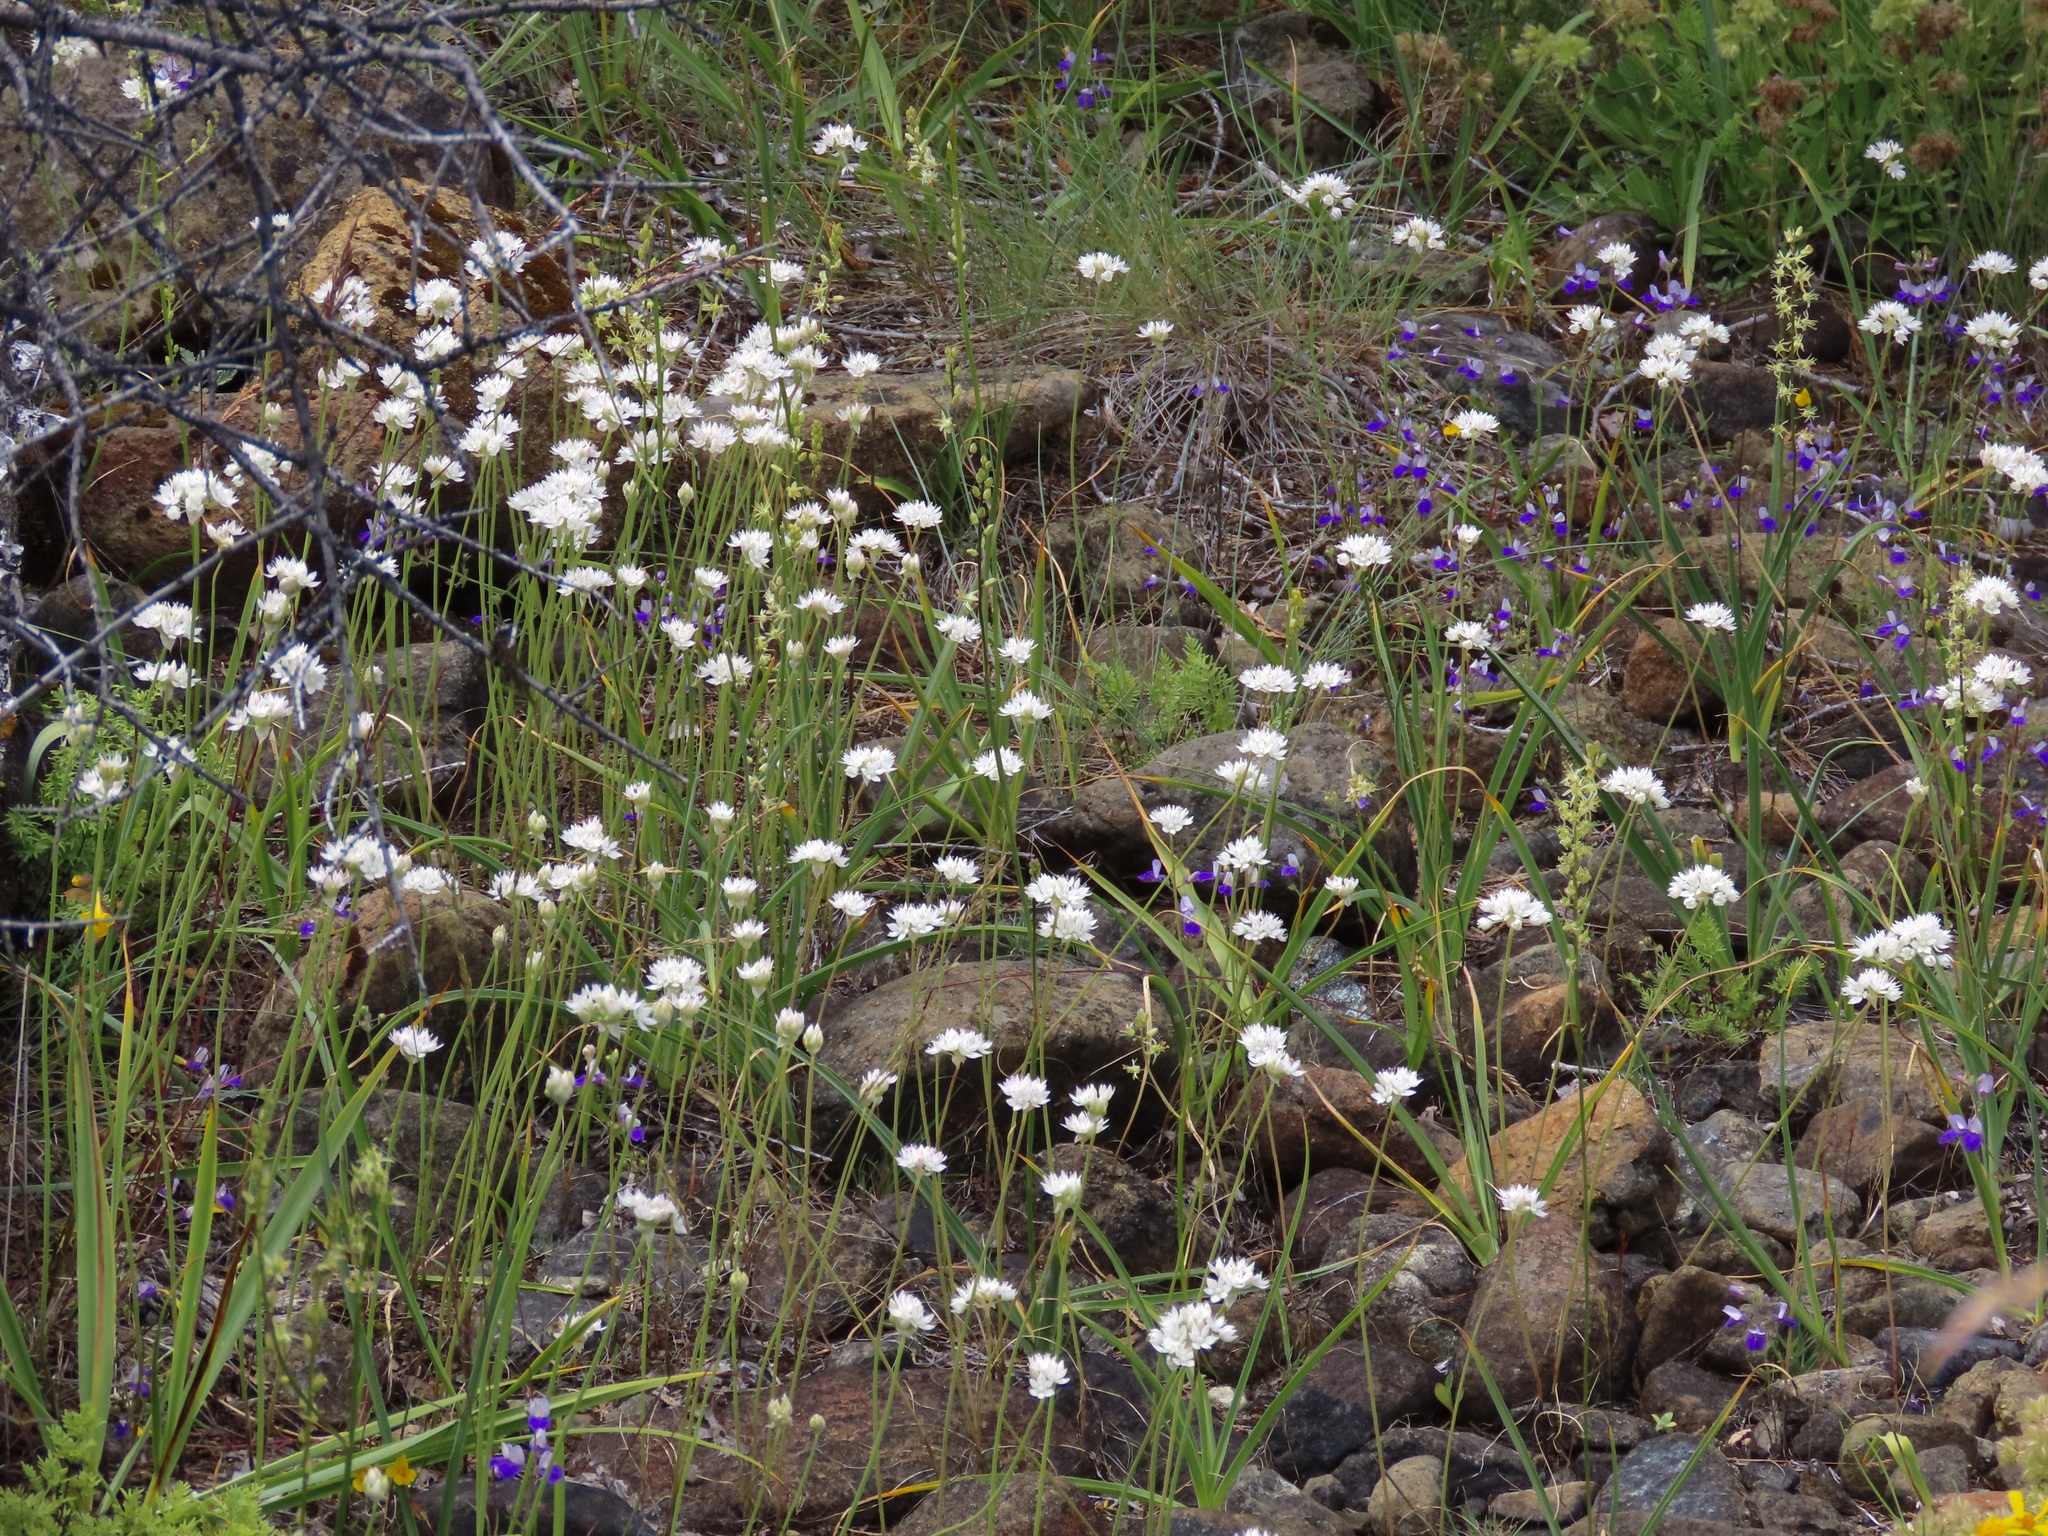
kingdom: Plantae
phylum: Tracheophyta
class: Liliopsida
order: Asparagales
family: Amaryllidaceae
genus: Allium
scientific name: Allium amplectens
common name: Narrow-leaved onion
